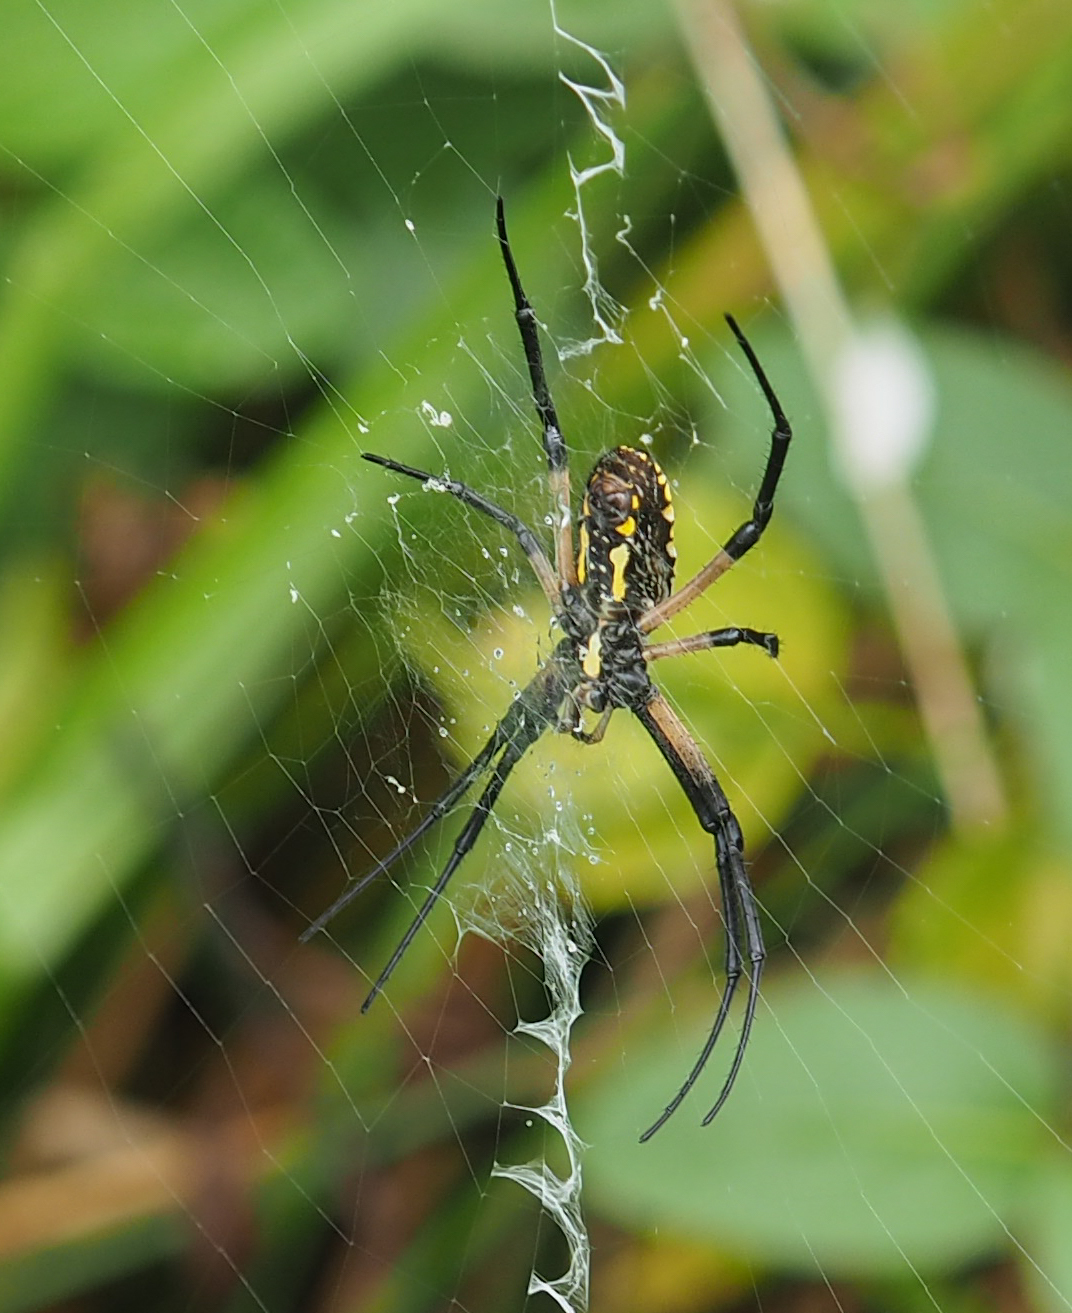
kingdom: Animalia
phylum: Arthropoda
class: Arachnida
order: Araneae
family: Araneidae
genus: Argiope
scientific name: Argiope aurantia
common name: Orb weavers
